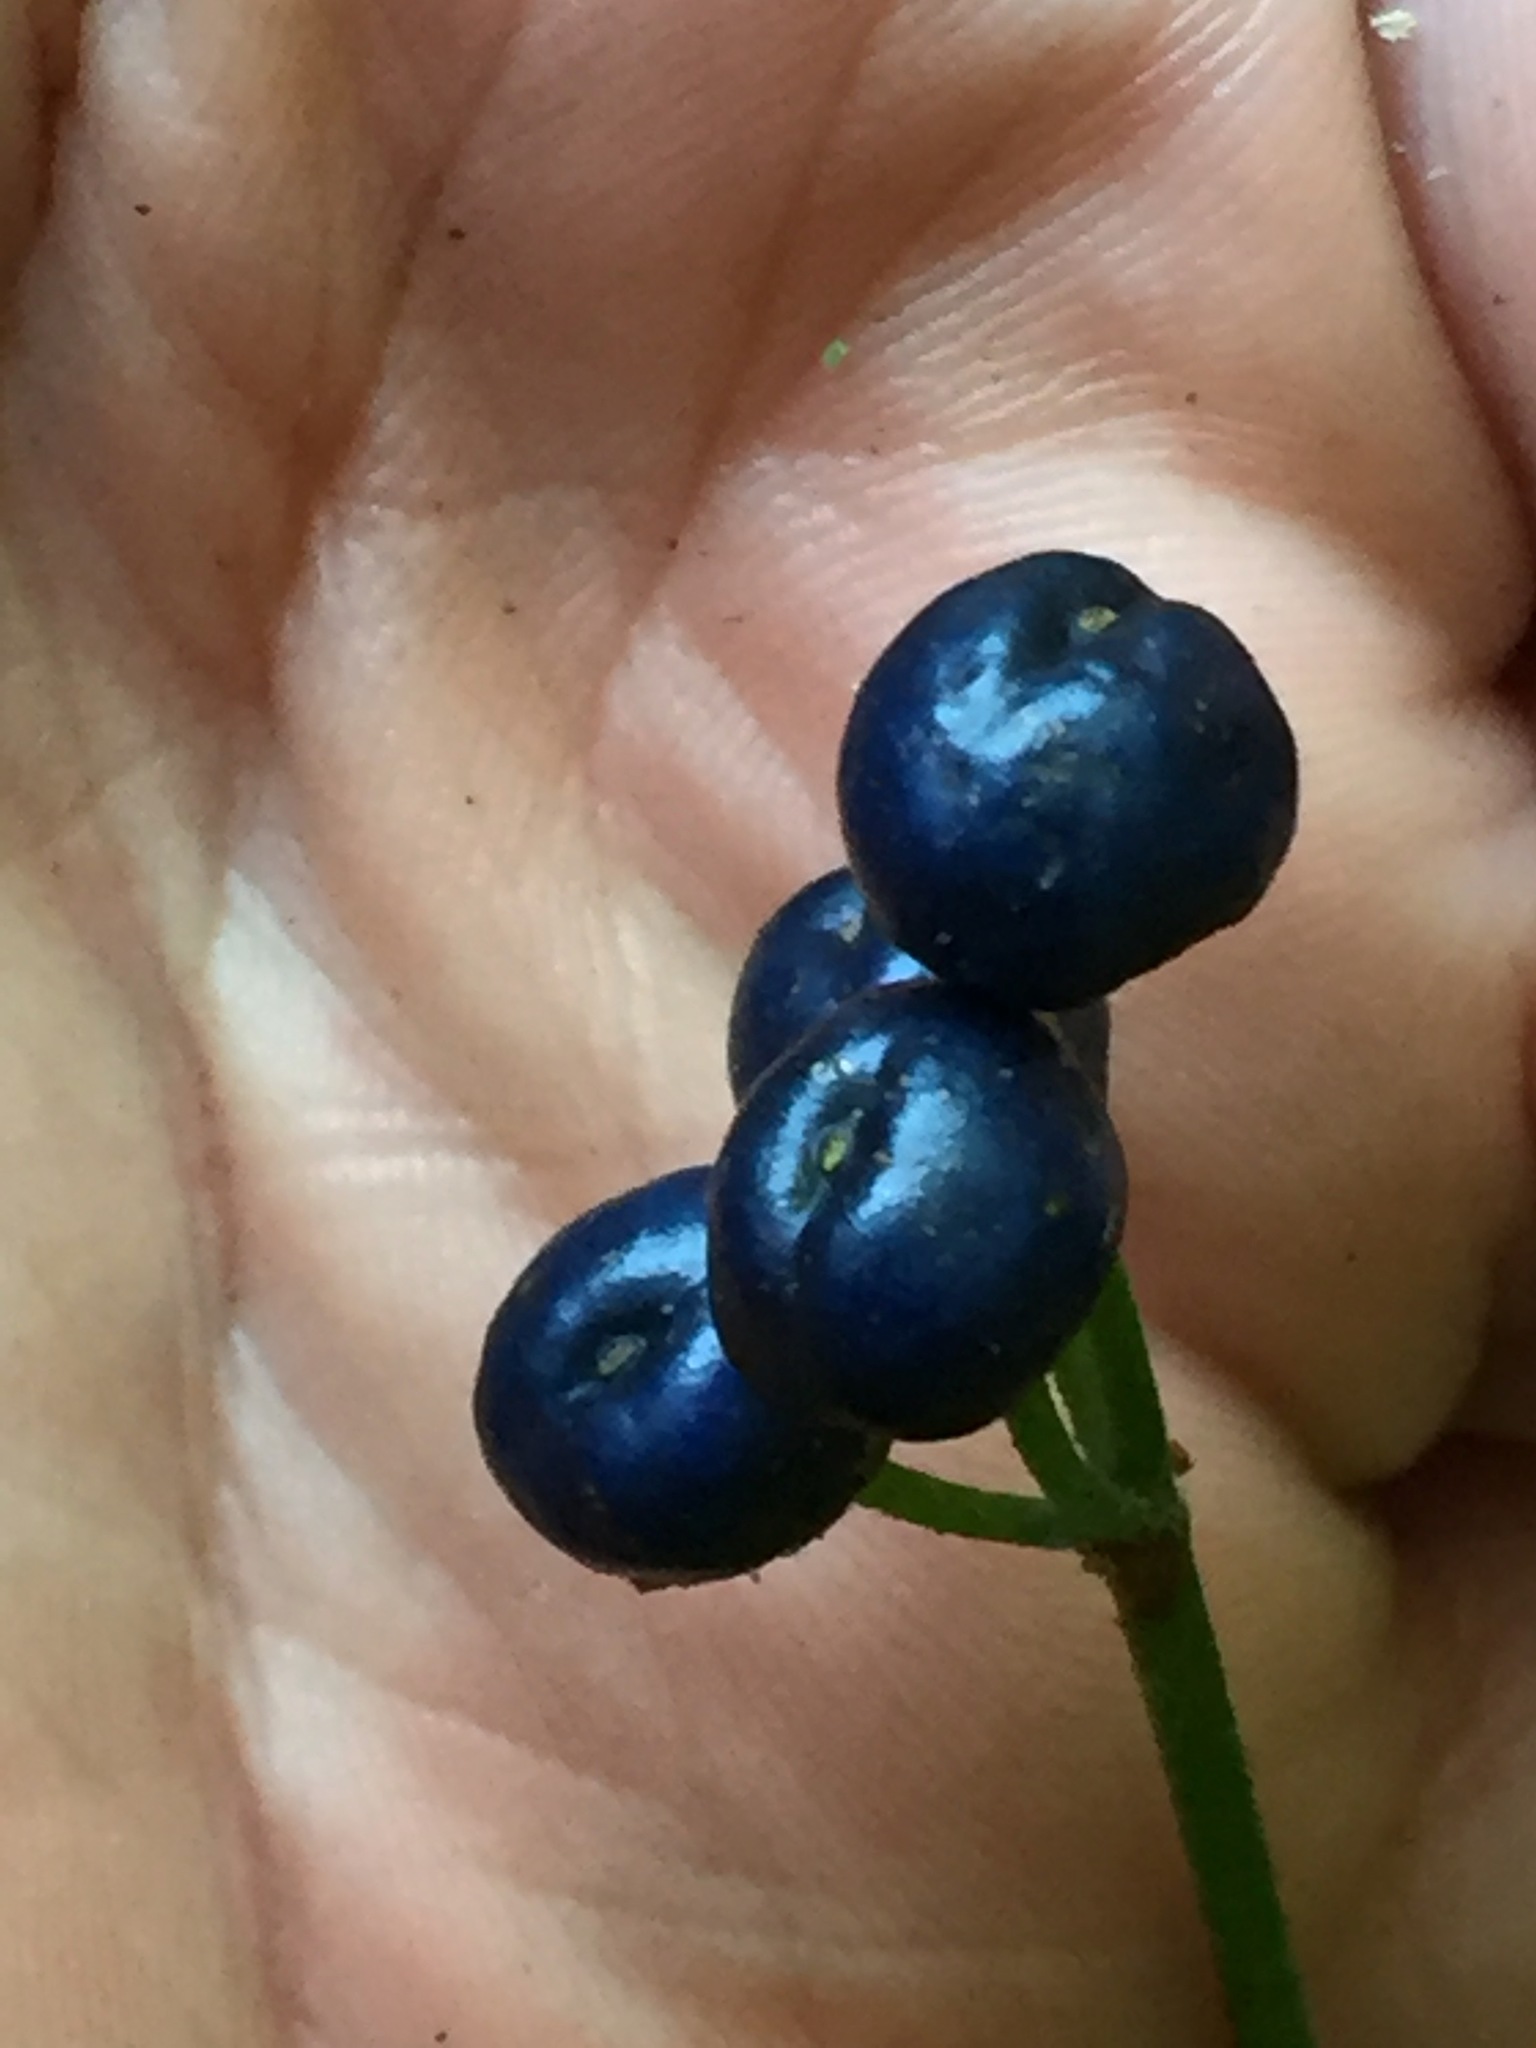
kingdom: Plantae
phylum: Tracheophyta
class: Liliopsida
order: Liliales
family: Liliaceae
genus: Clintonia
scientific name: Clintonia borealis
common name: Yellow clintonia
